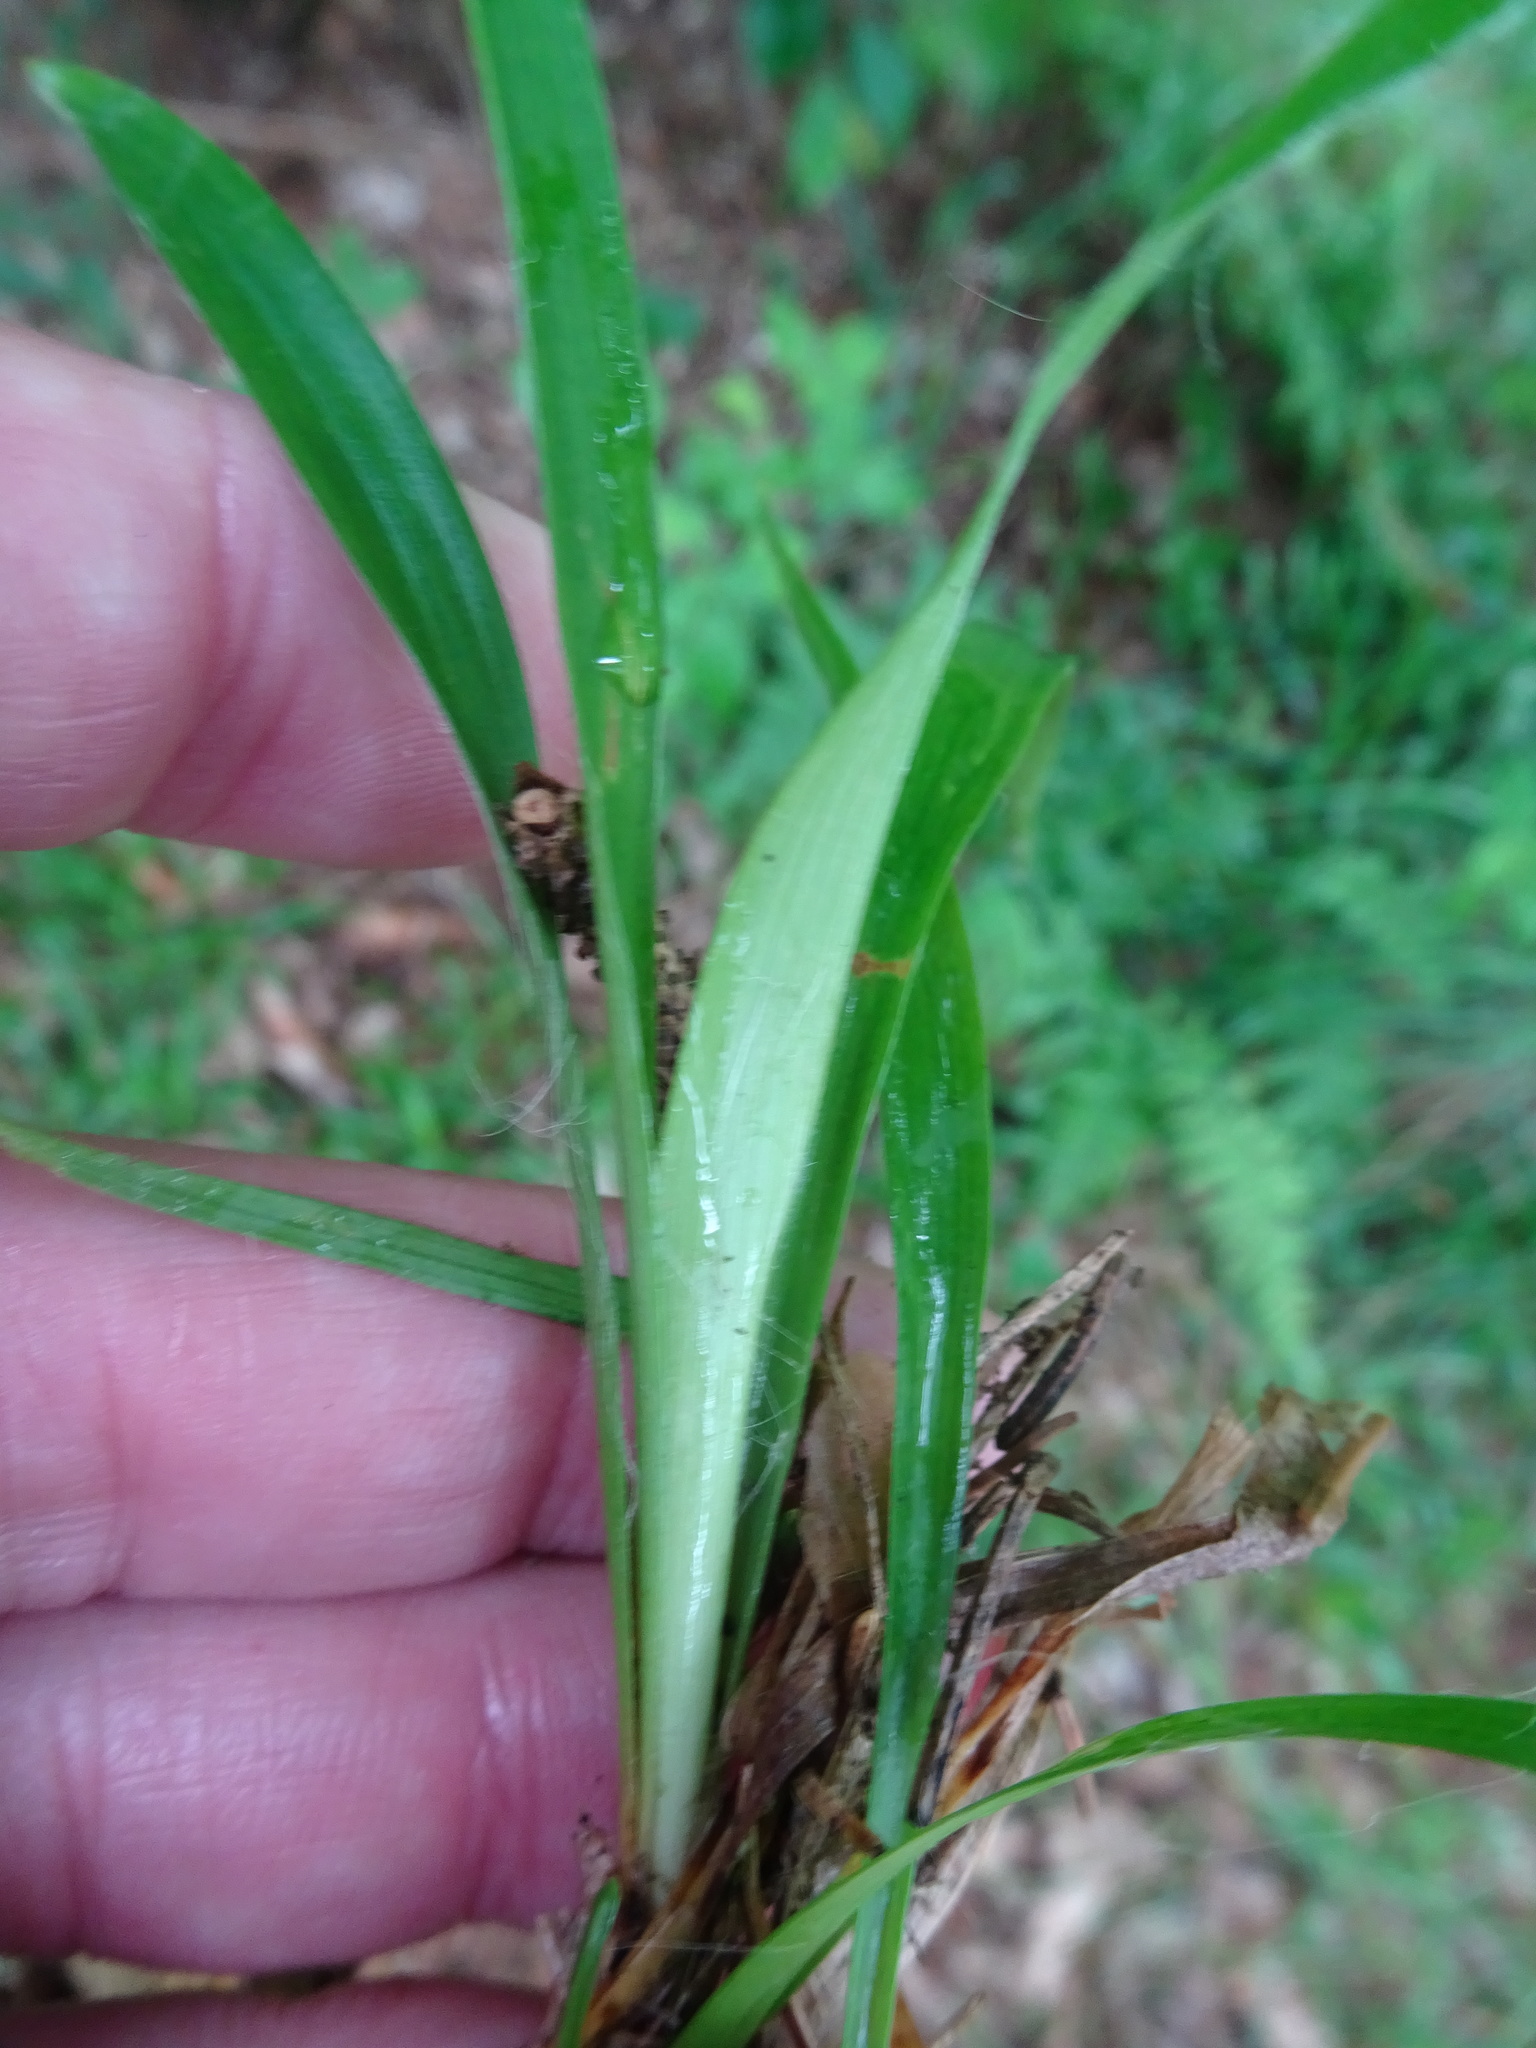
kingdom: Plantae
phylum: Tracheophyta
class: Liliopsida
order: Poales
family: Juncaceae
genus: Luzula
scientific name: Luzula pilosa
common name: Hairy wood-rush
